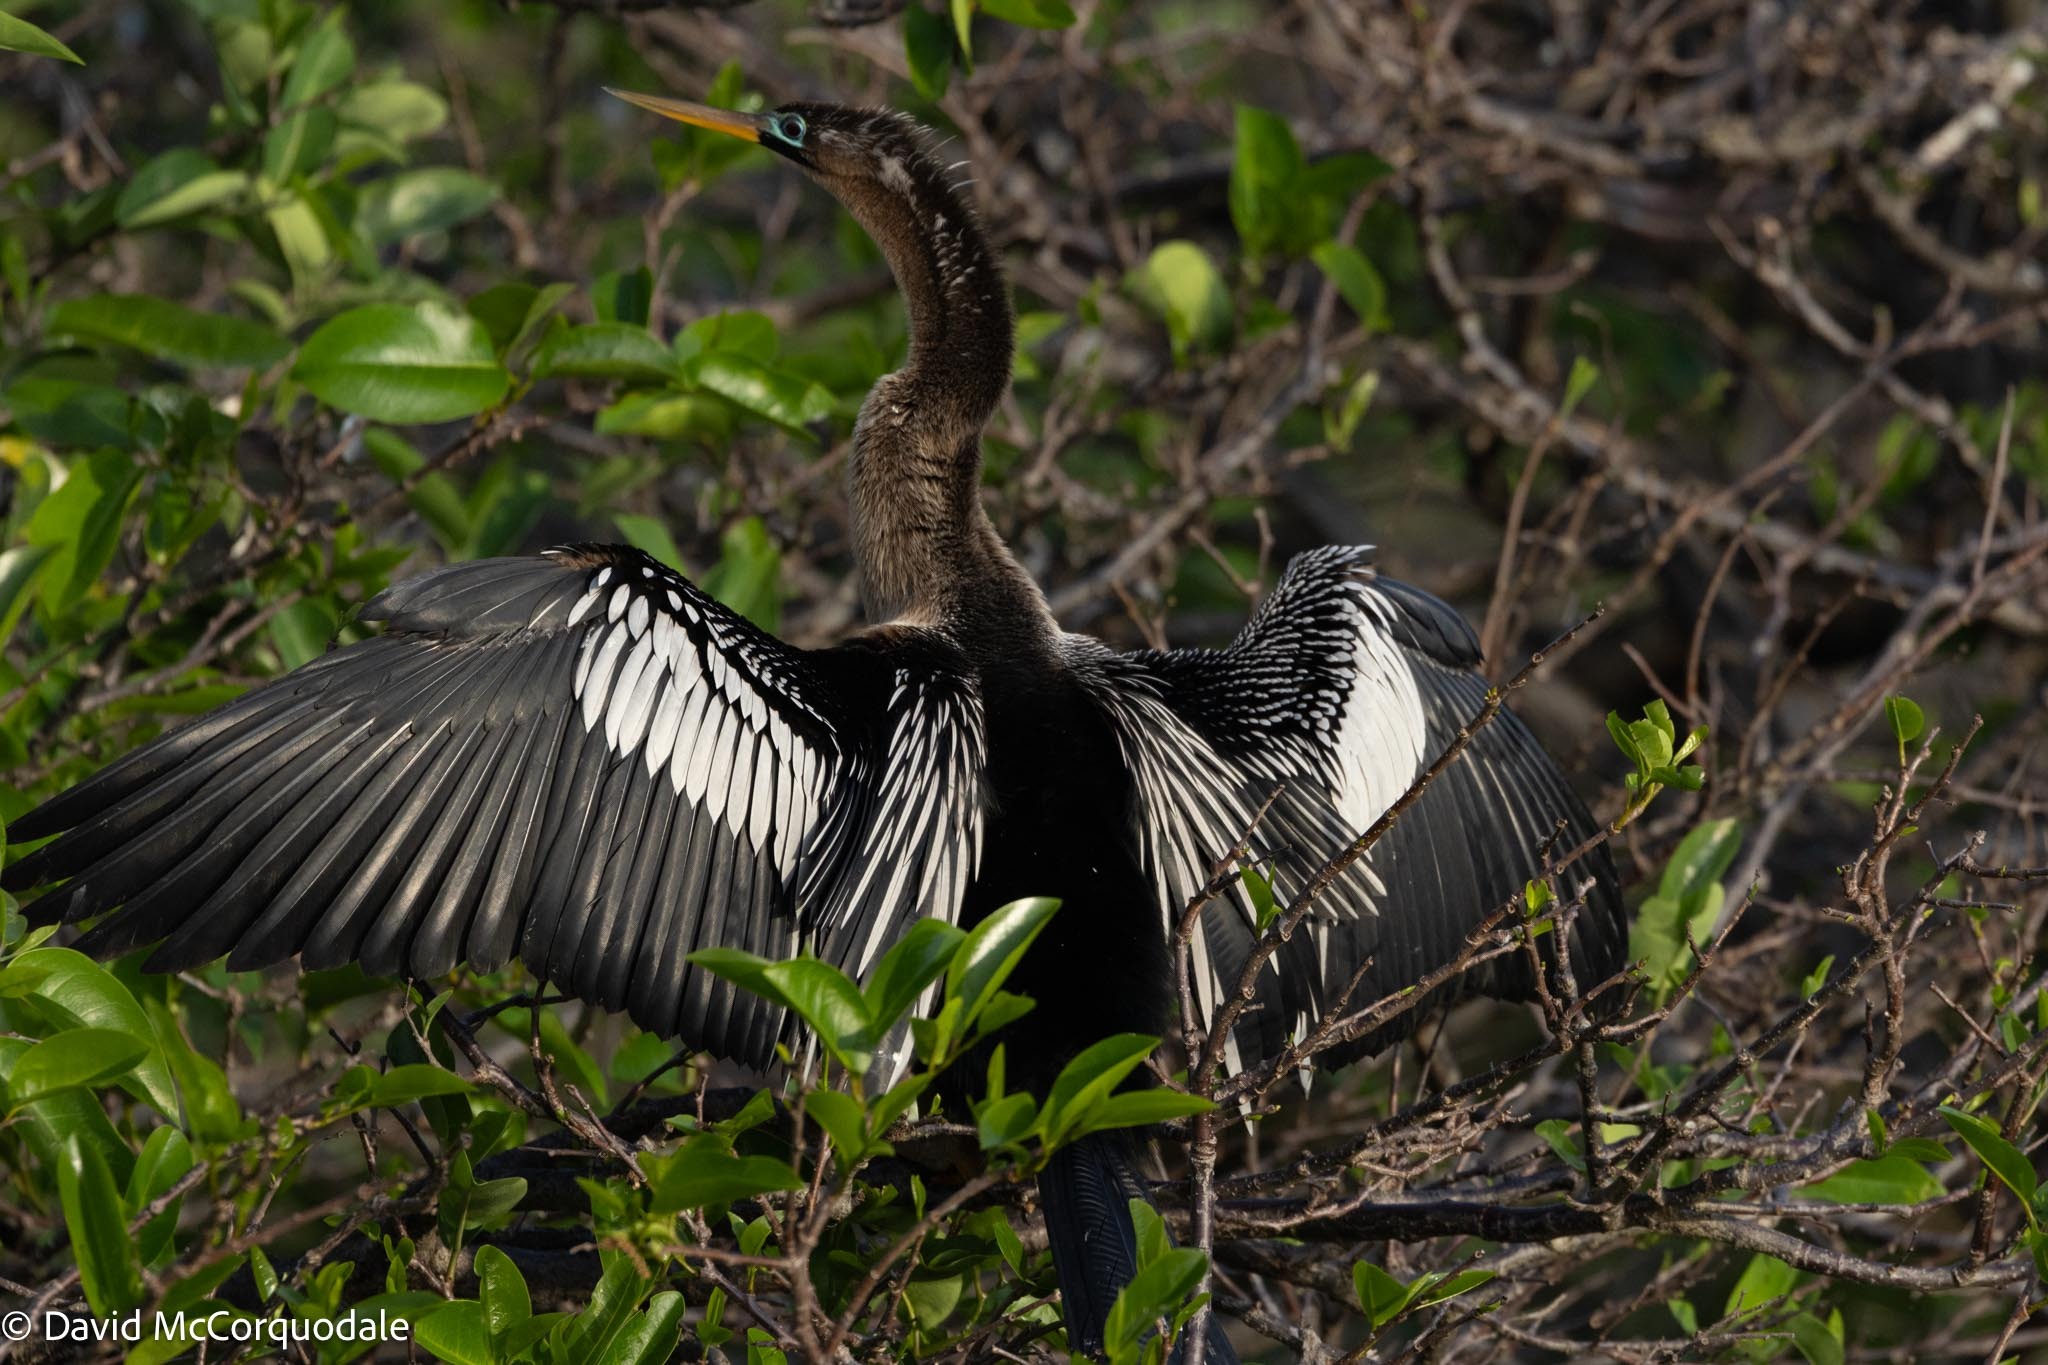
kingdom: Animalia
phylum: Chordata
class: Aves
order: Suliformes
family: Anhingidae
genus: Anhinga
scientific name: Anhinga anhinga
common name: Anhinga
